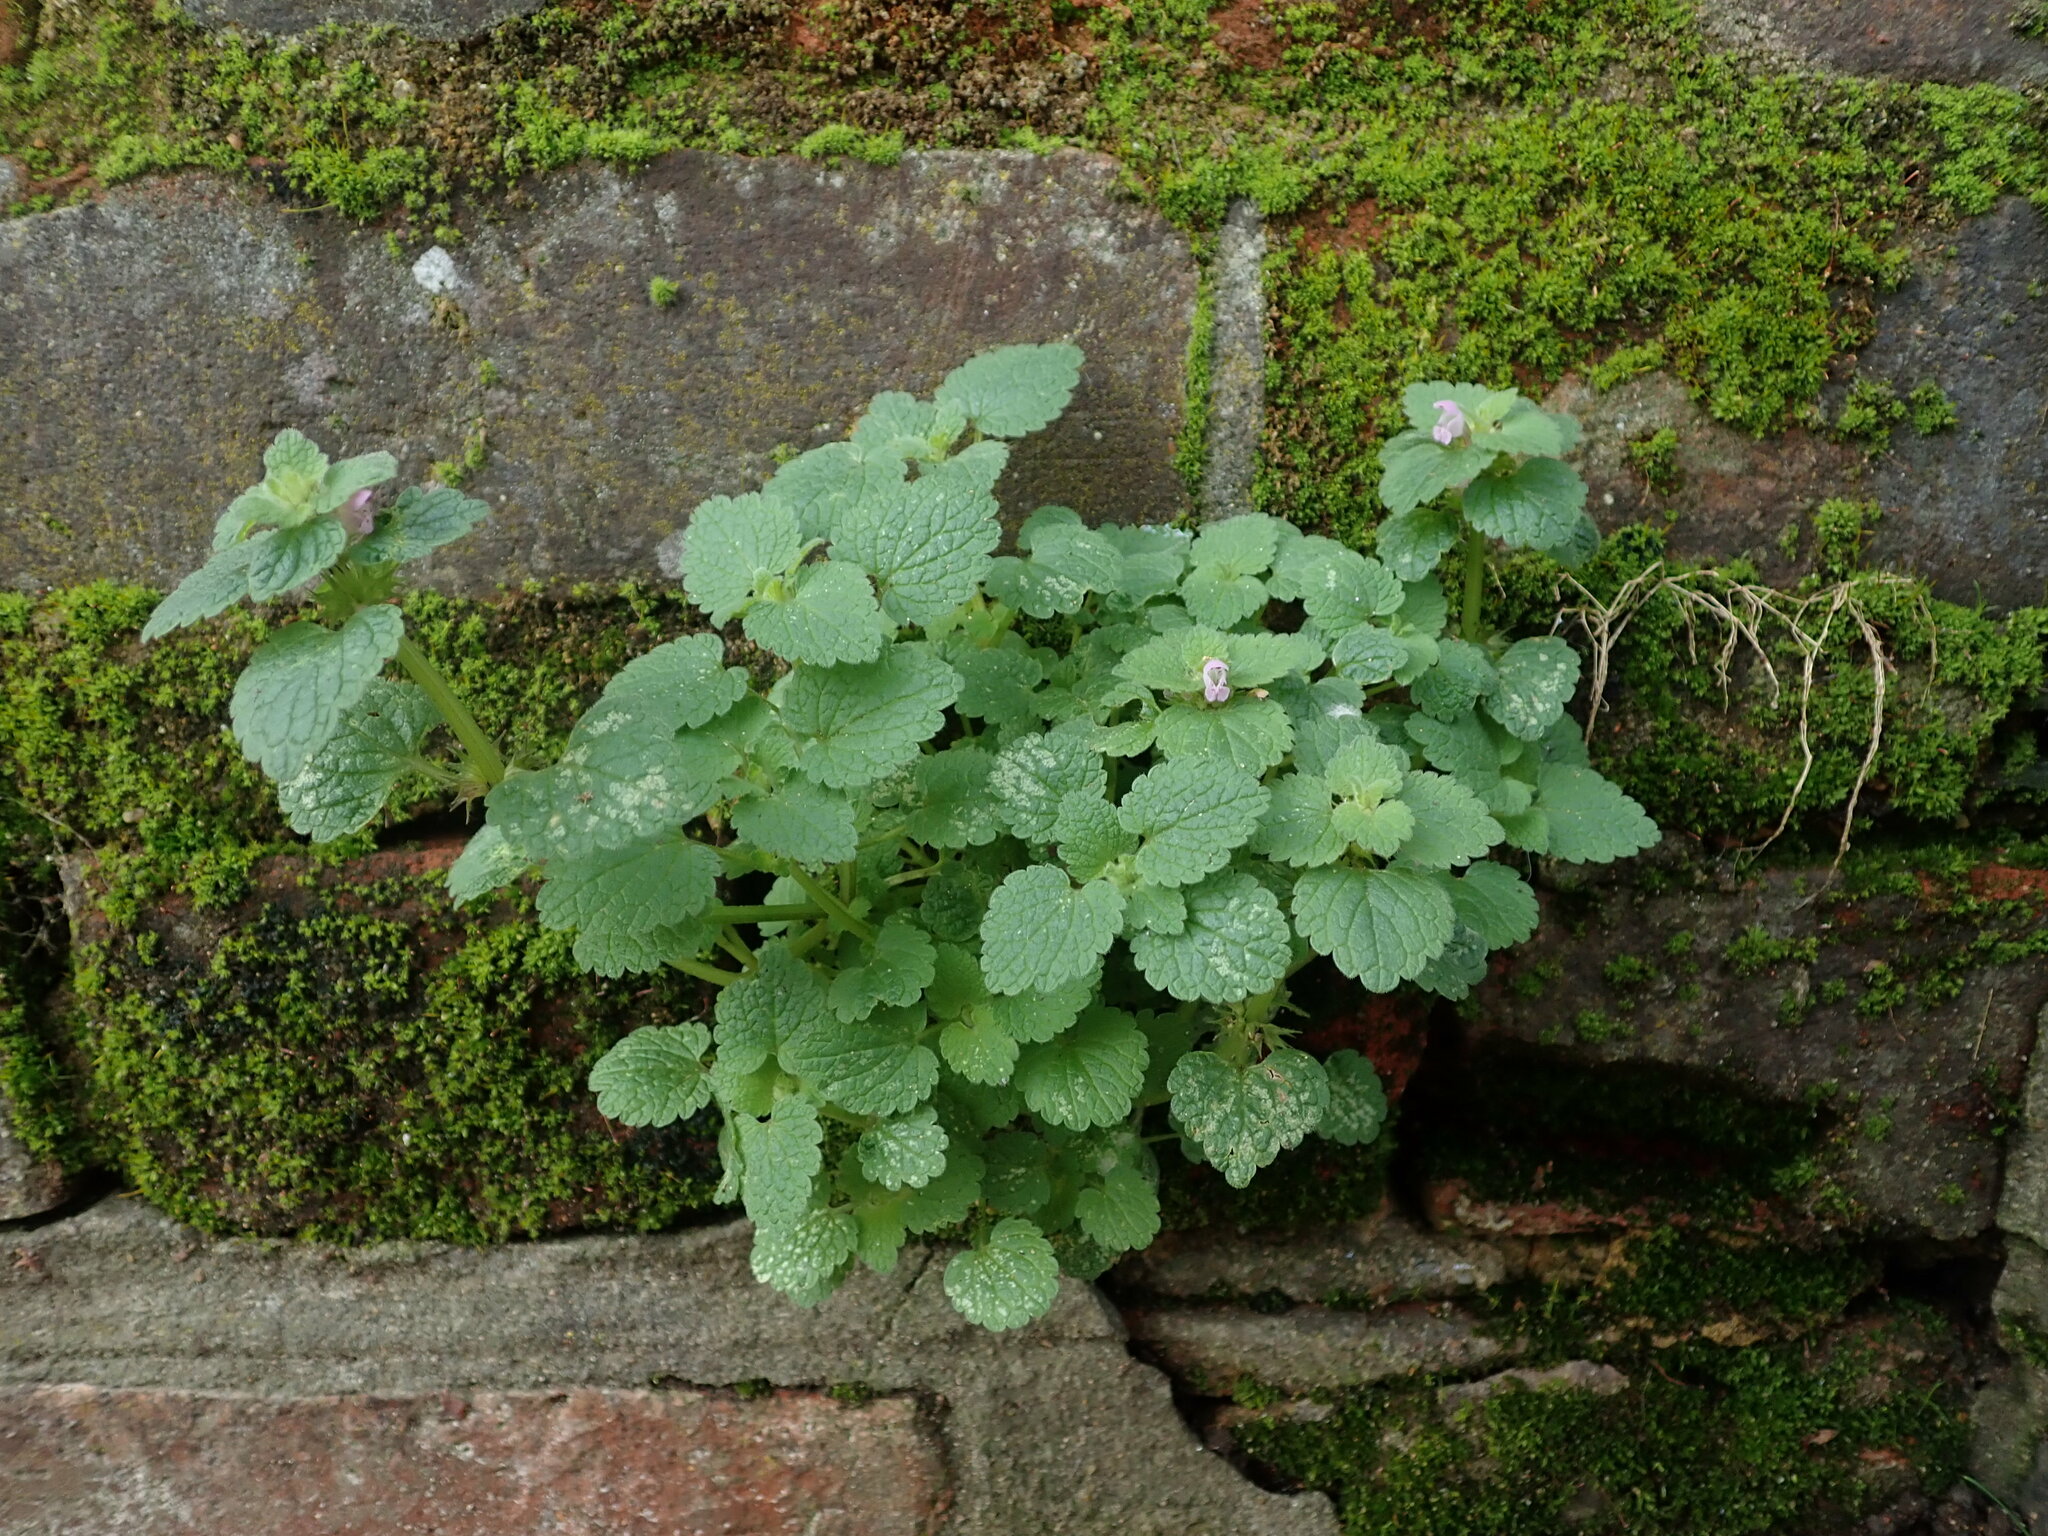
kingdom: Plantae
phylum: Tracheophyta
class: Magnoliopsida
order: Lamiales
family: Lamiaceae
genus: Lamium
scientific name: Lamium purpureum
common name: Red dead-nettle
